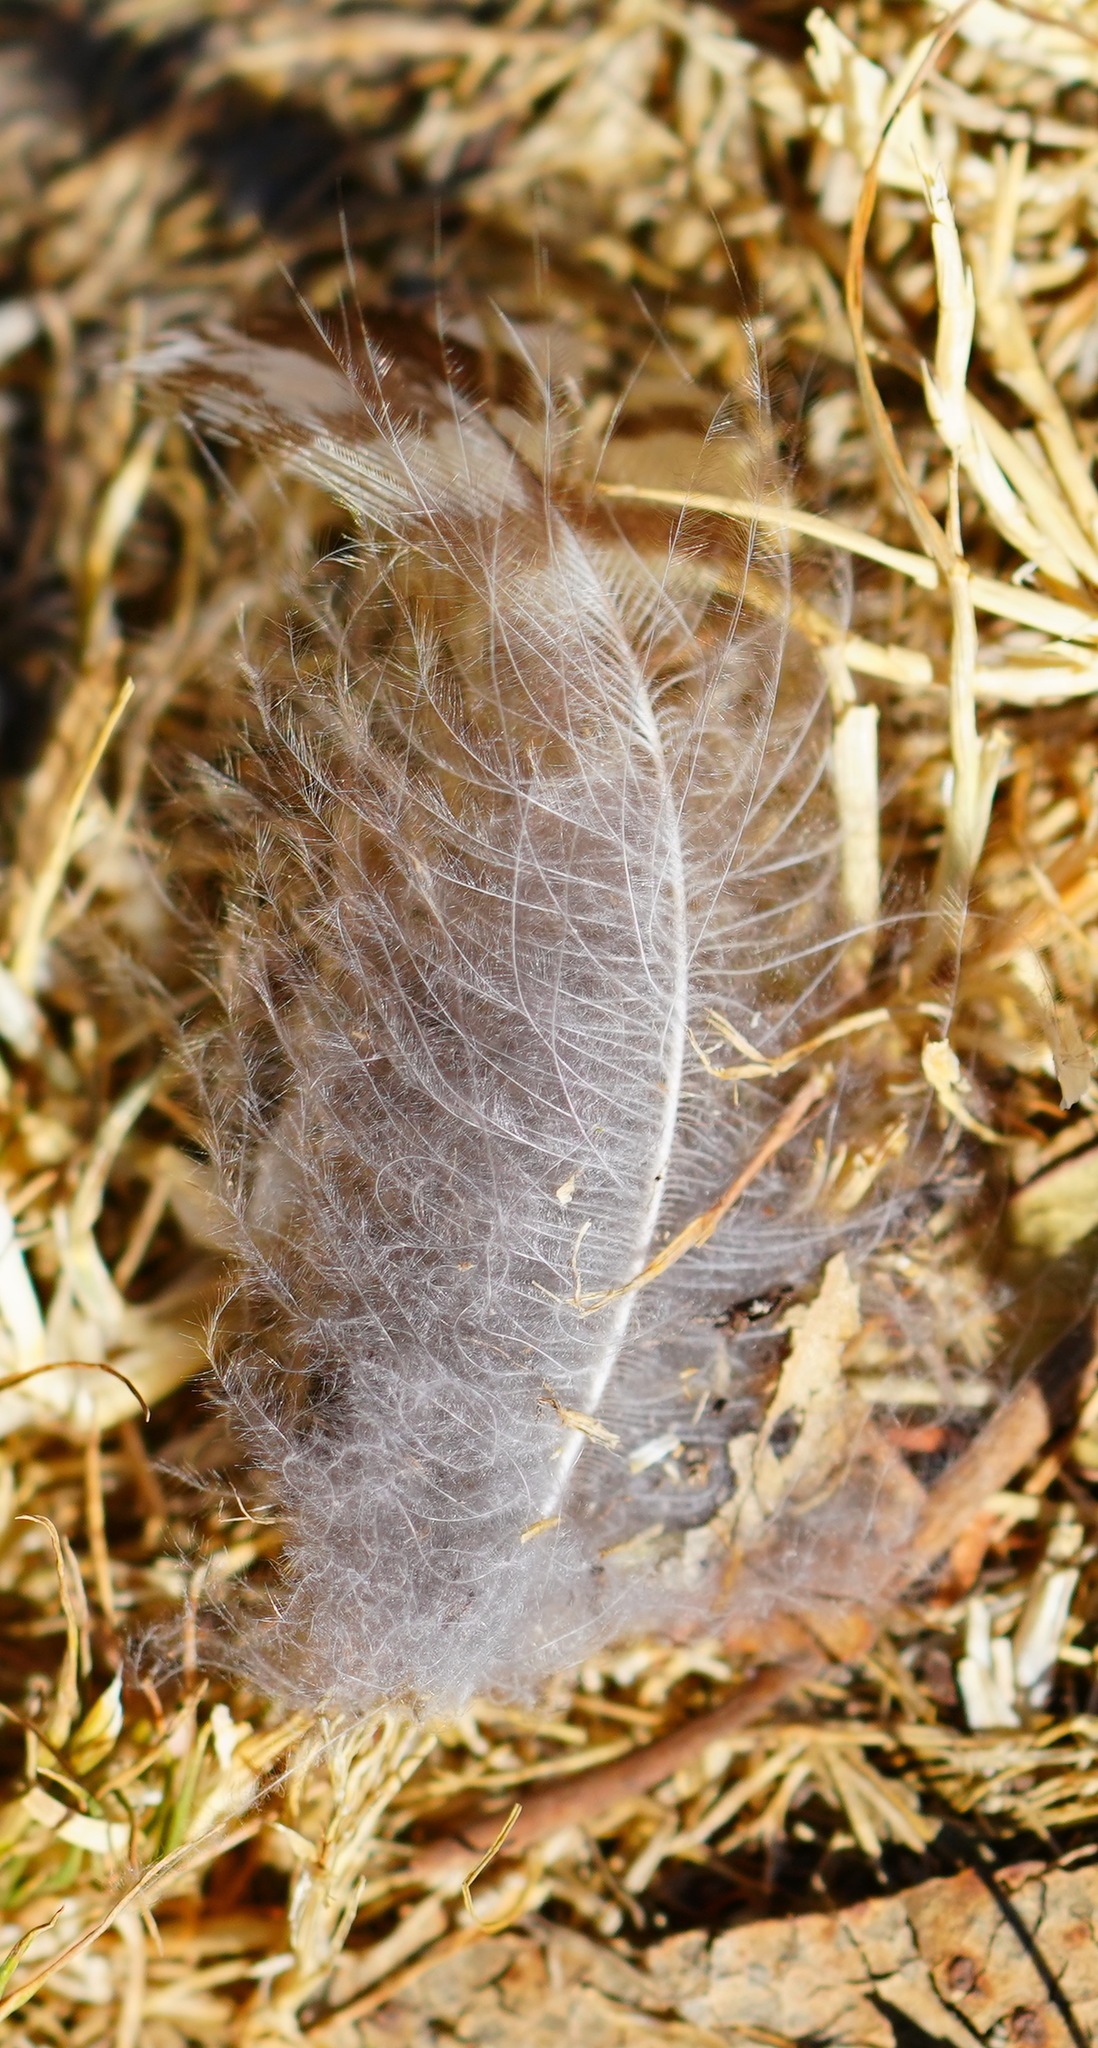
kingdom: Animalia
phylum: Chordata
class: Aves
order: Strigiformes
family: Strigidae
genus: Bubo
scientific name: Bubo virginianus
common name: Great horned owl
